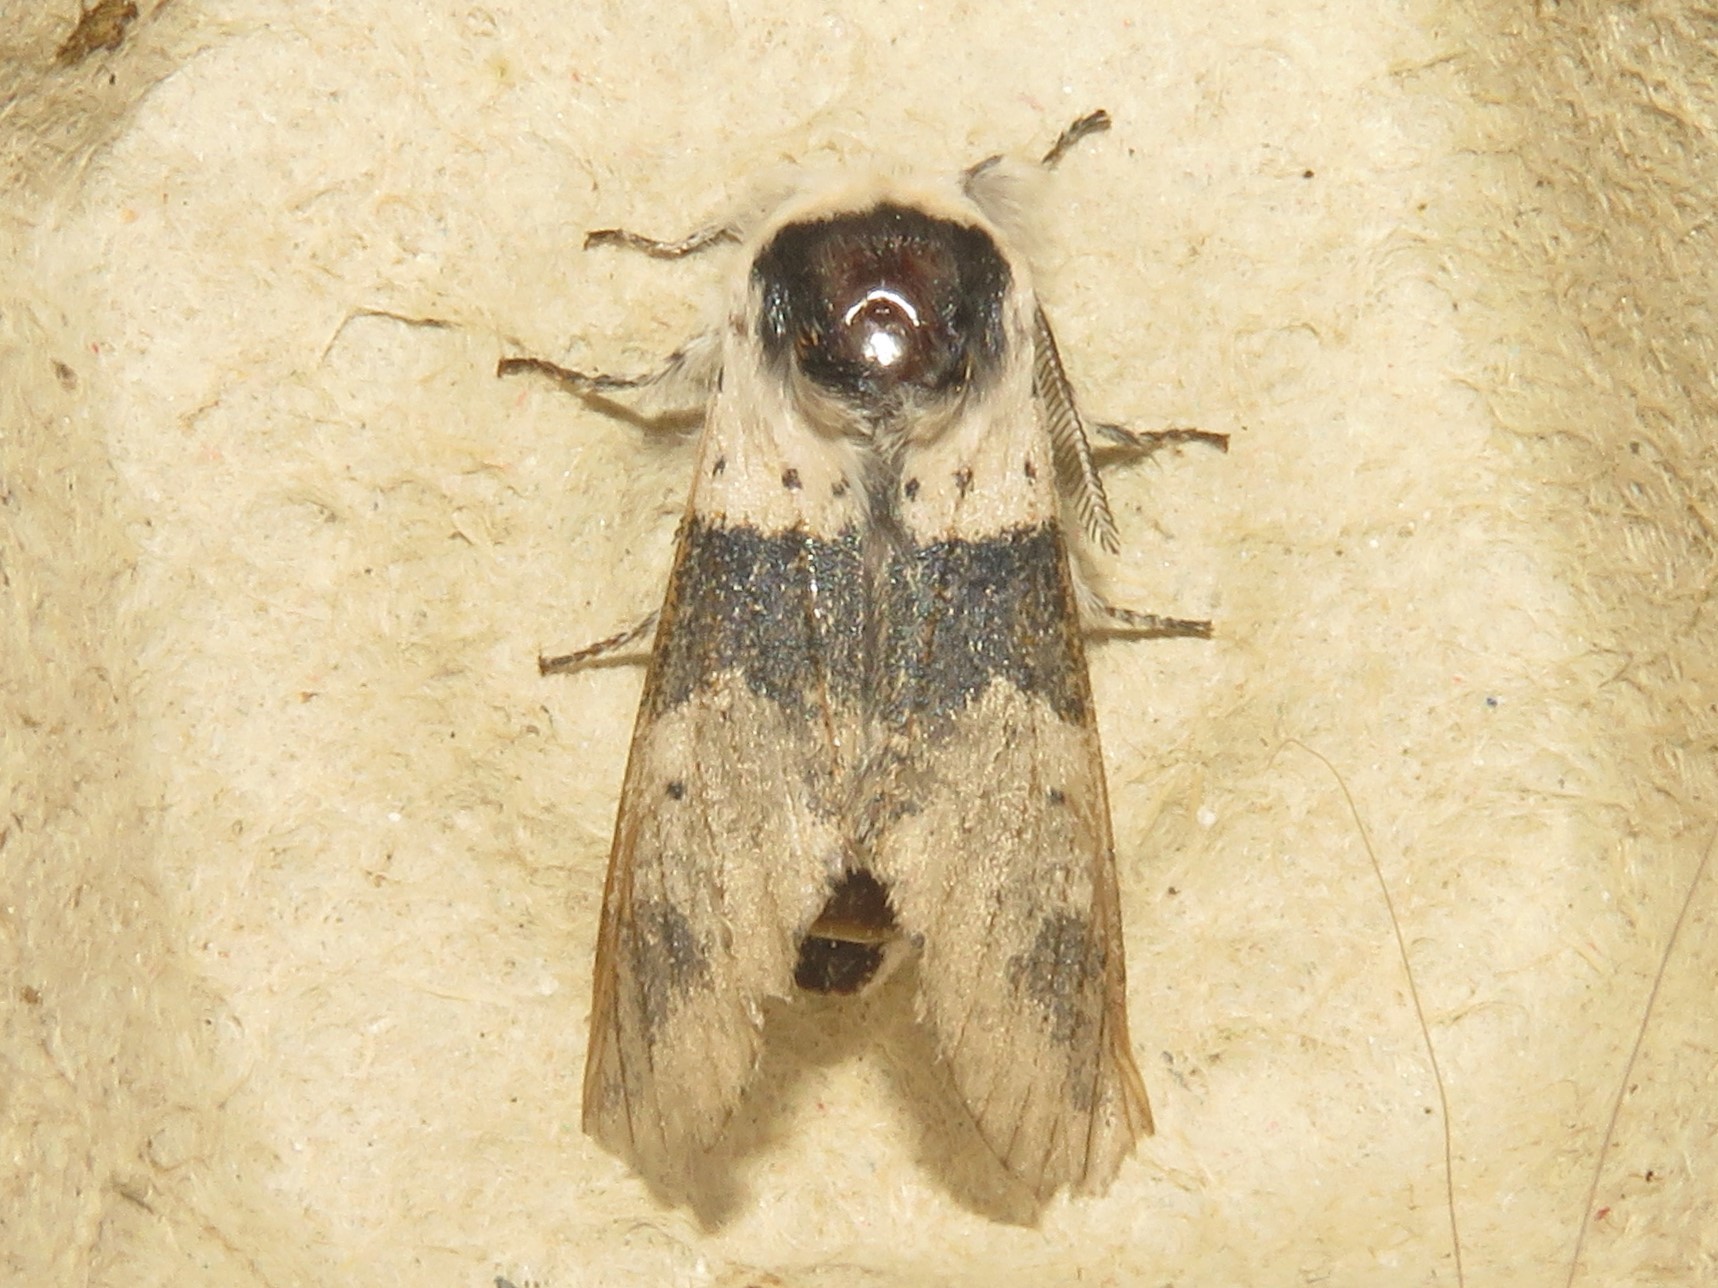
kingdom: Animalia
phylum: Arthropoda
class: Insecta
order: Lepidoptera
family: Notodontidae
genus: Furcula
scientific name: Furcula modesta
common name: Modest furcula moth
